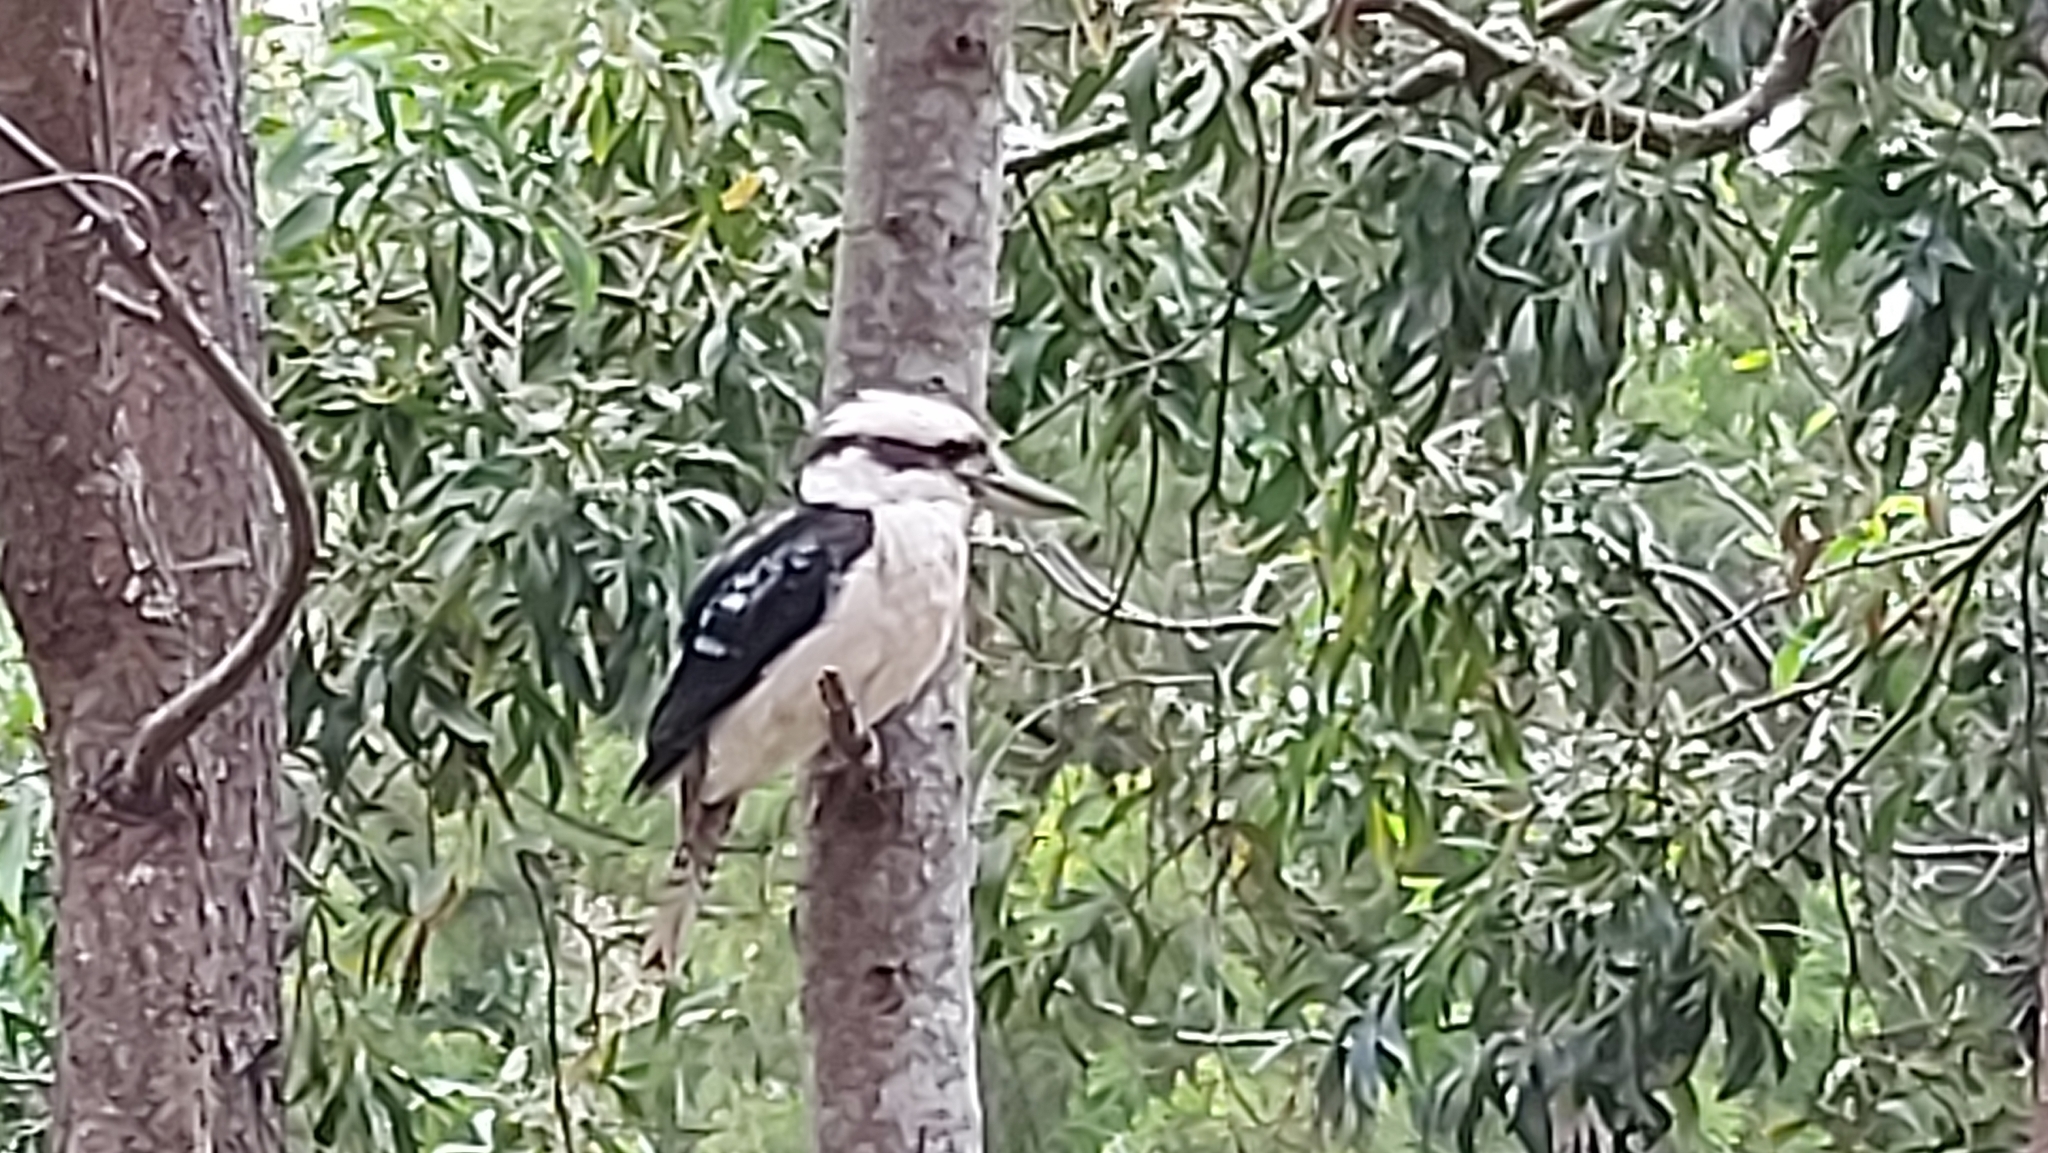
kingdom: Animalia
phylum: Chordata
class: Aves
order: Coraciiformes
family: Alcedinidae
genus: Dacelo
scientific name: Dacelo novaeguineae
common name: Laughing kookaburra
